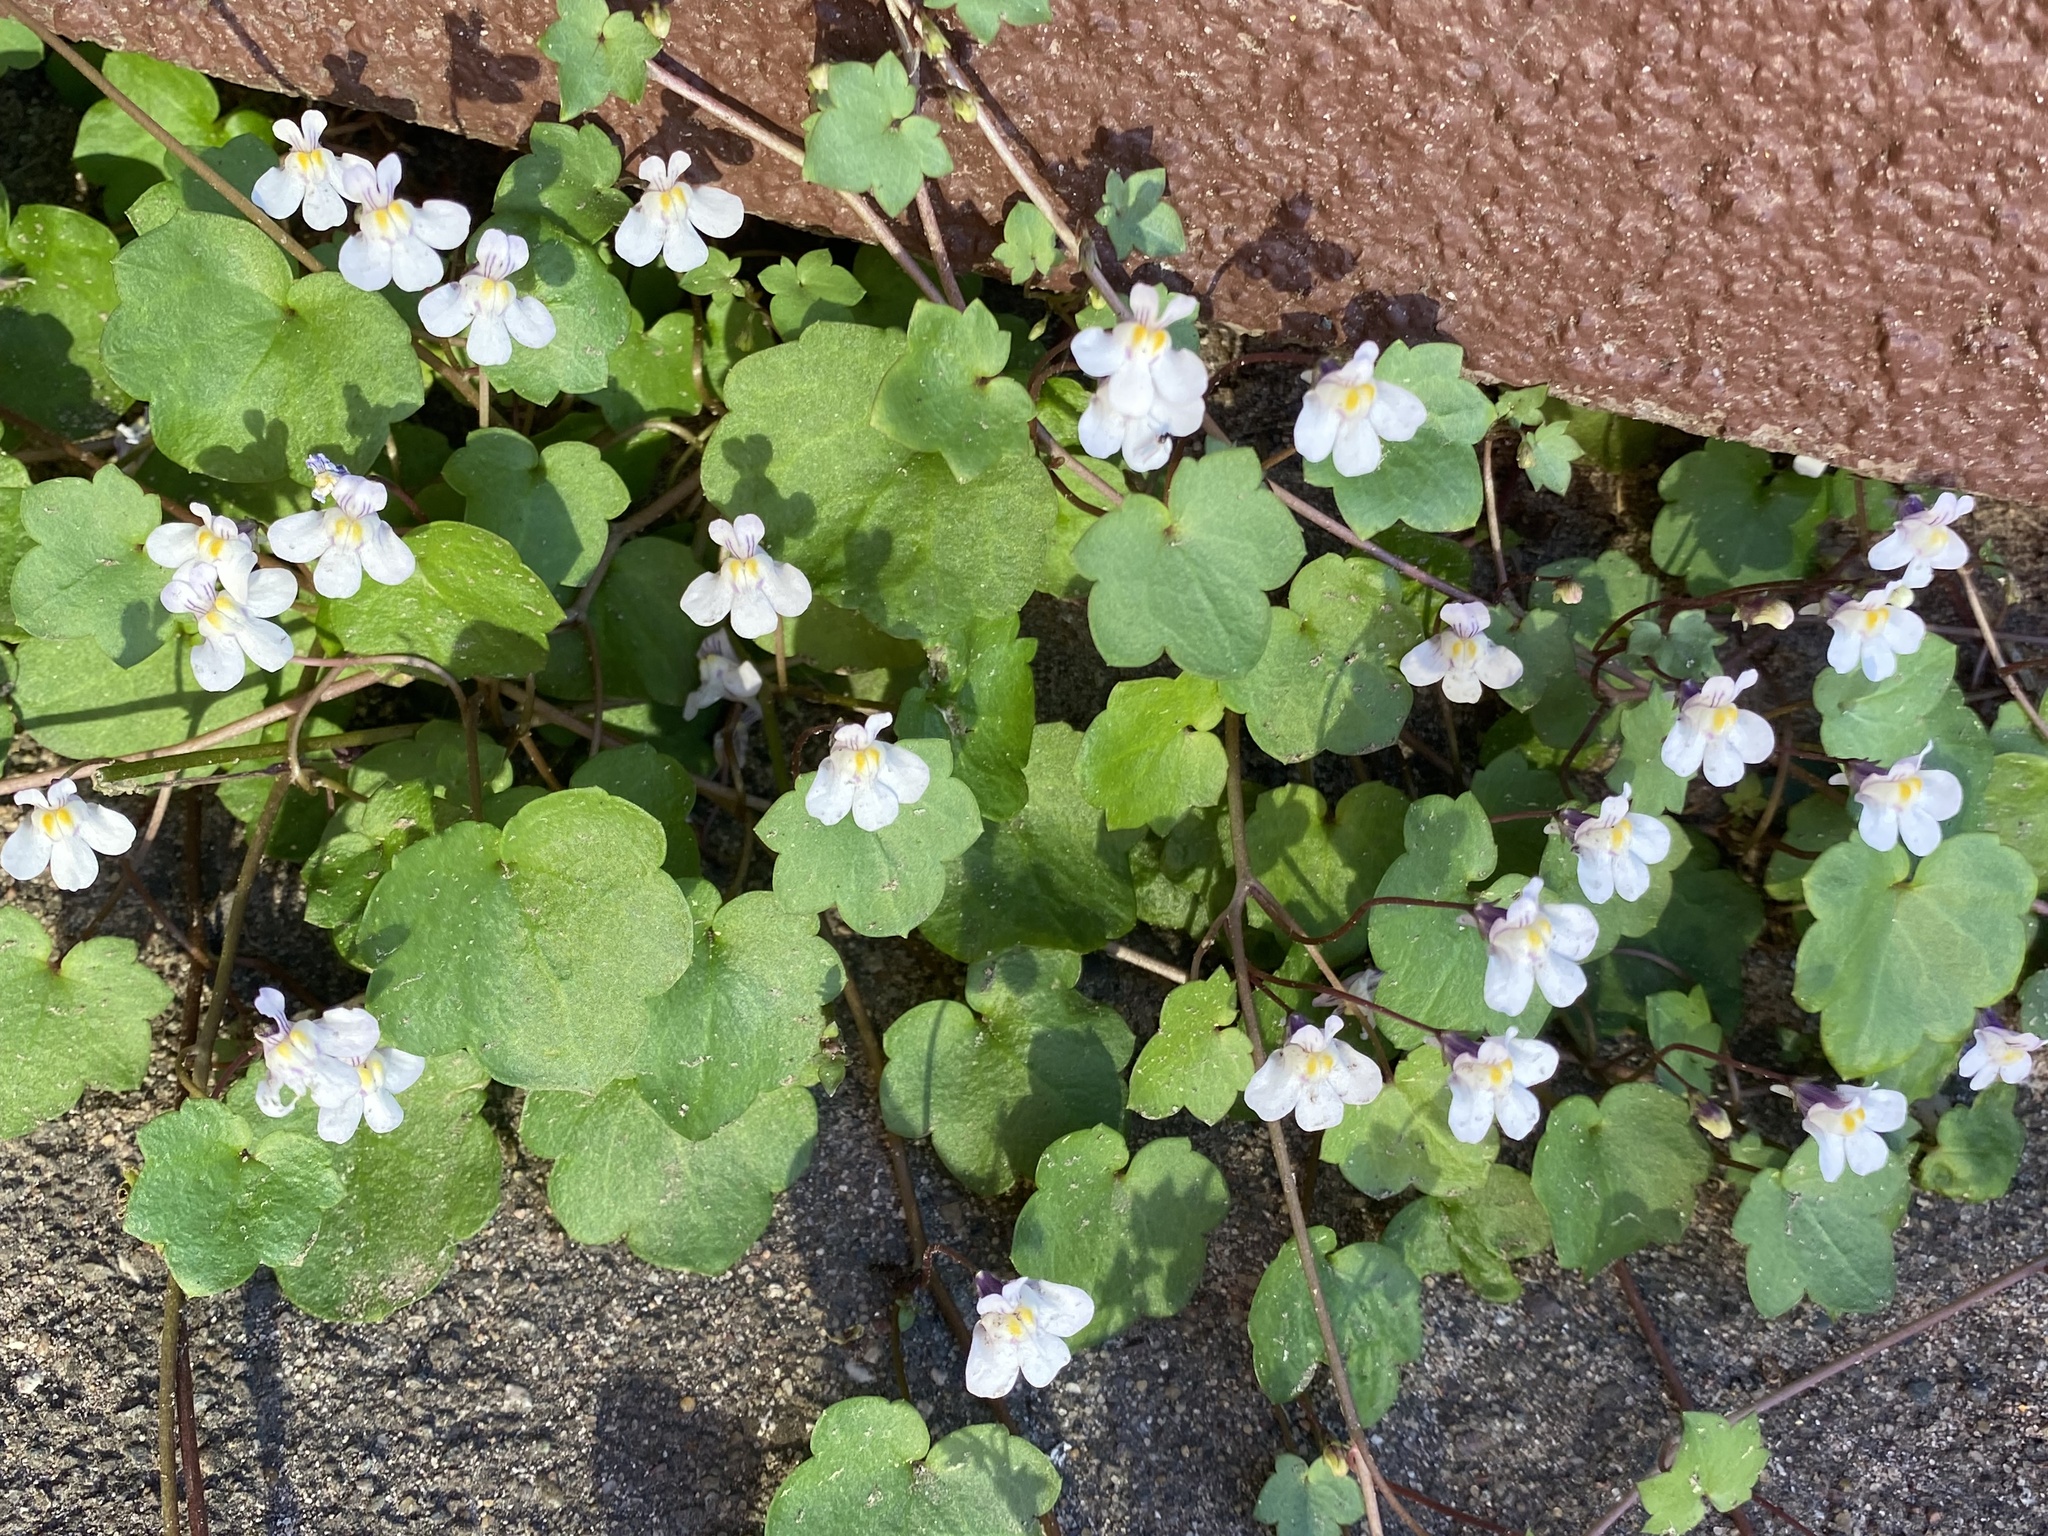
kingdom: Plantae
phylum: Tracheophyta
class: Magnoliopsida
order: Lamiales
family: Plantaginaceae
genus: Cymbalaria
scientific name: Cymbalaria muralis
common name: Ivy-leaved toadflax
